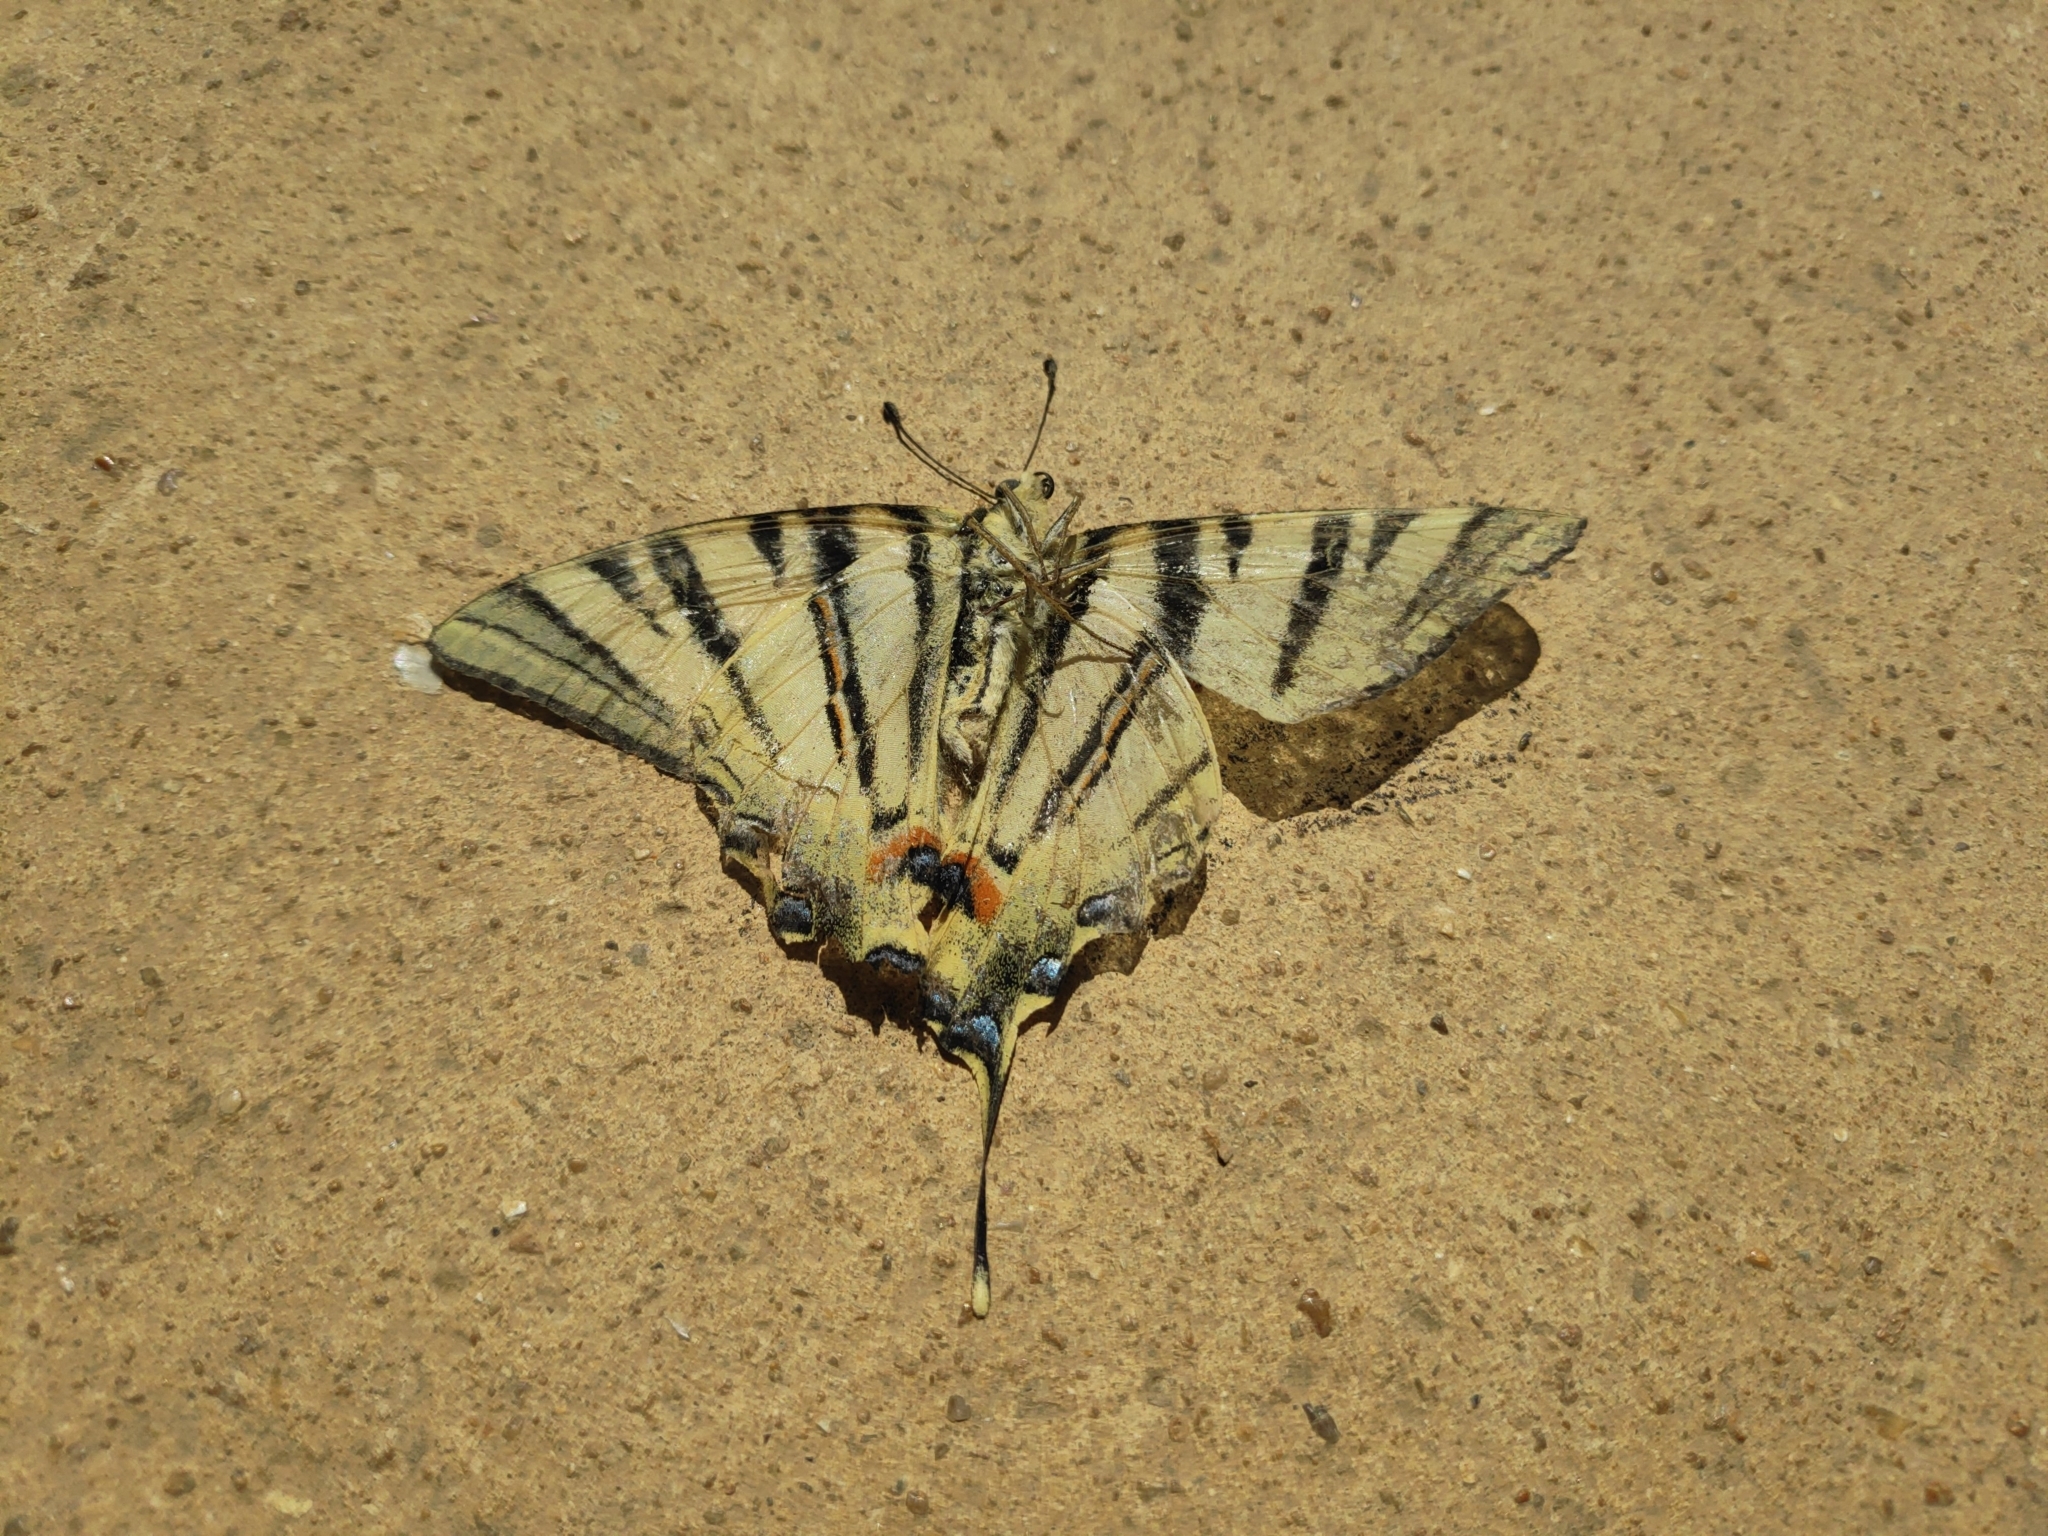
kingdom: Animalia
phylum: Arthropoda
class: Insecta
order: Lepidoptera
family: Papilionidae
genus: Iphiclides
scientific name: Iphiclides podalirius
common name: Scarce swallowtail
